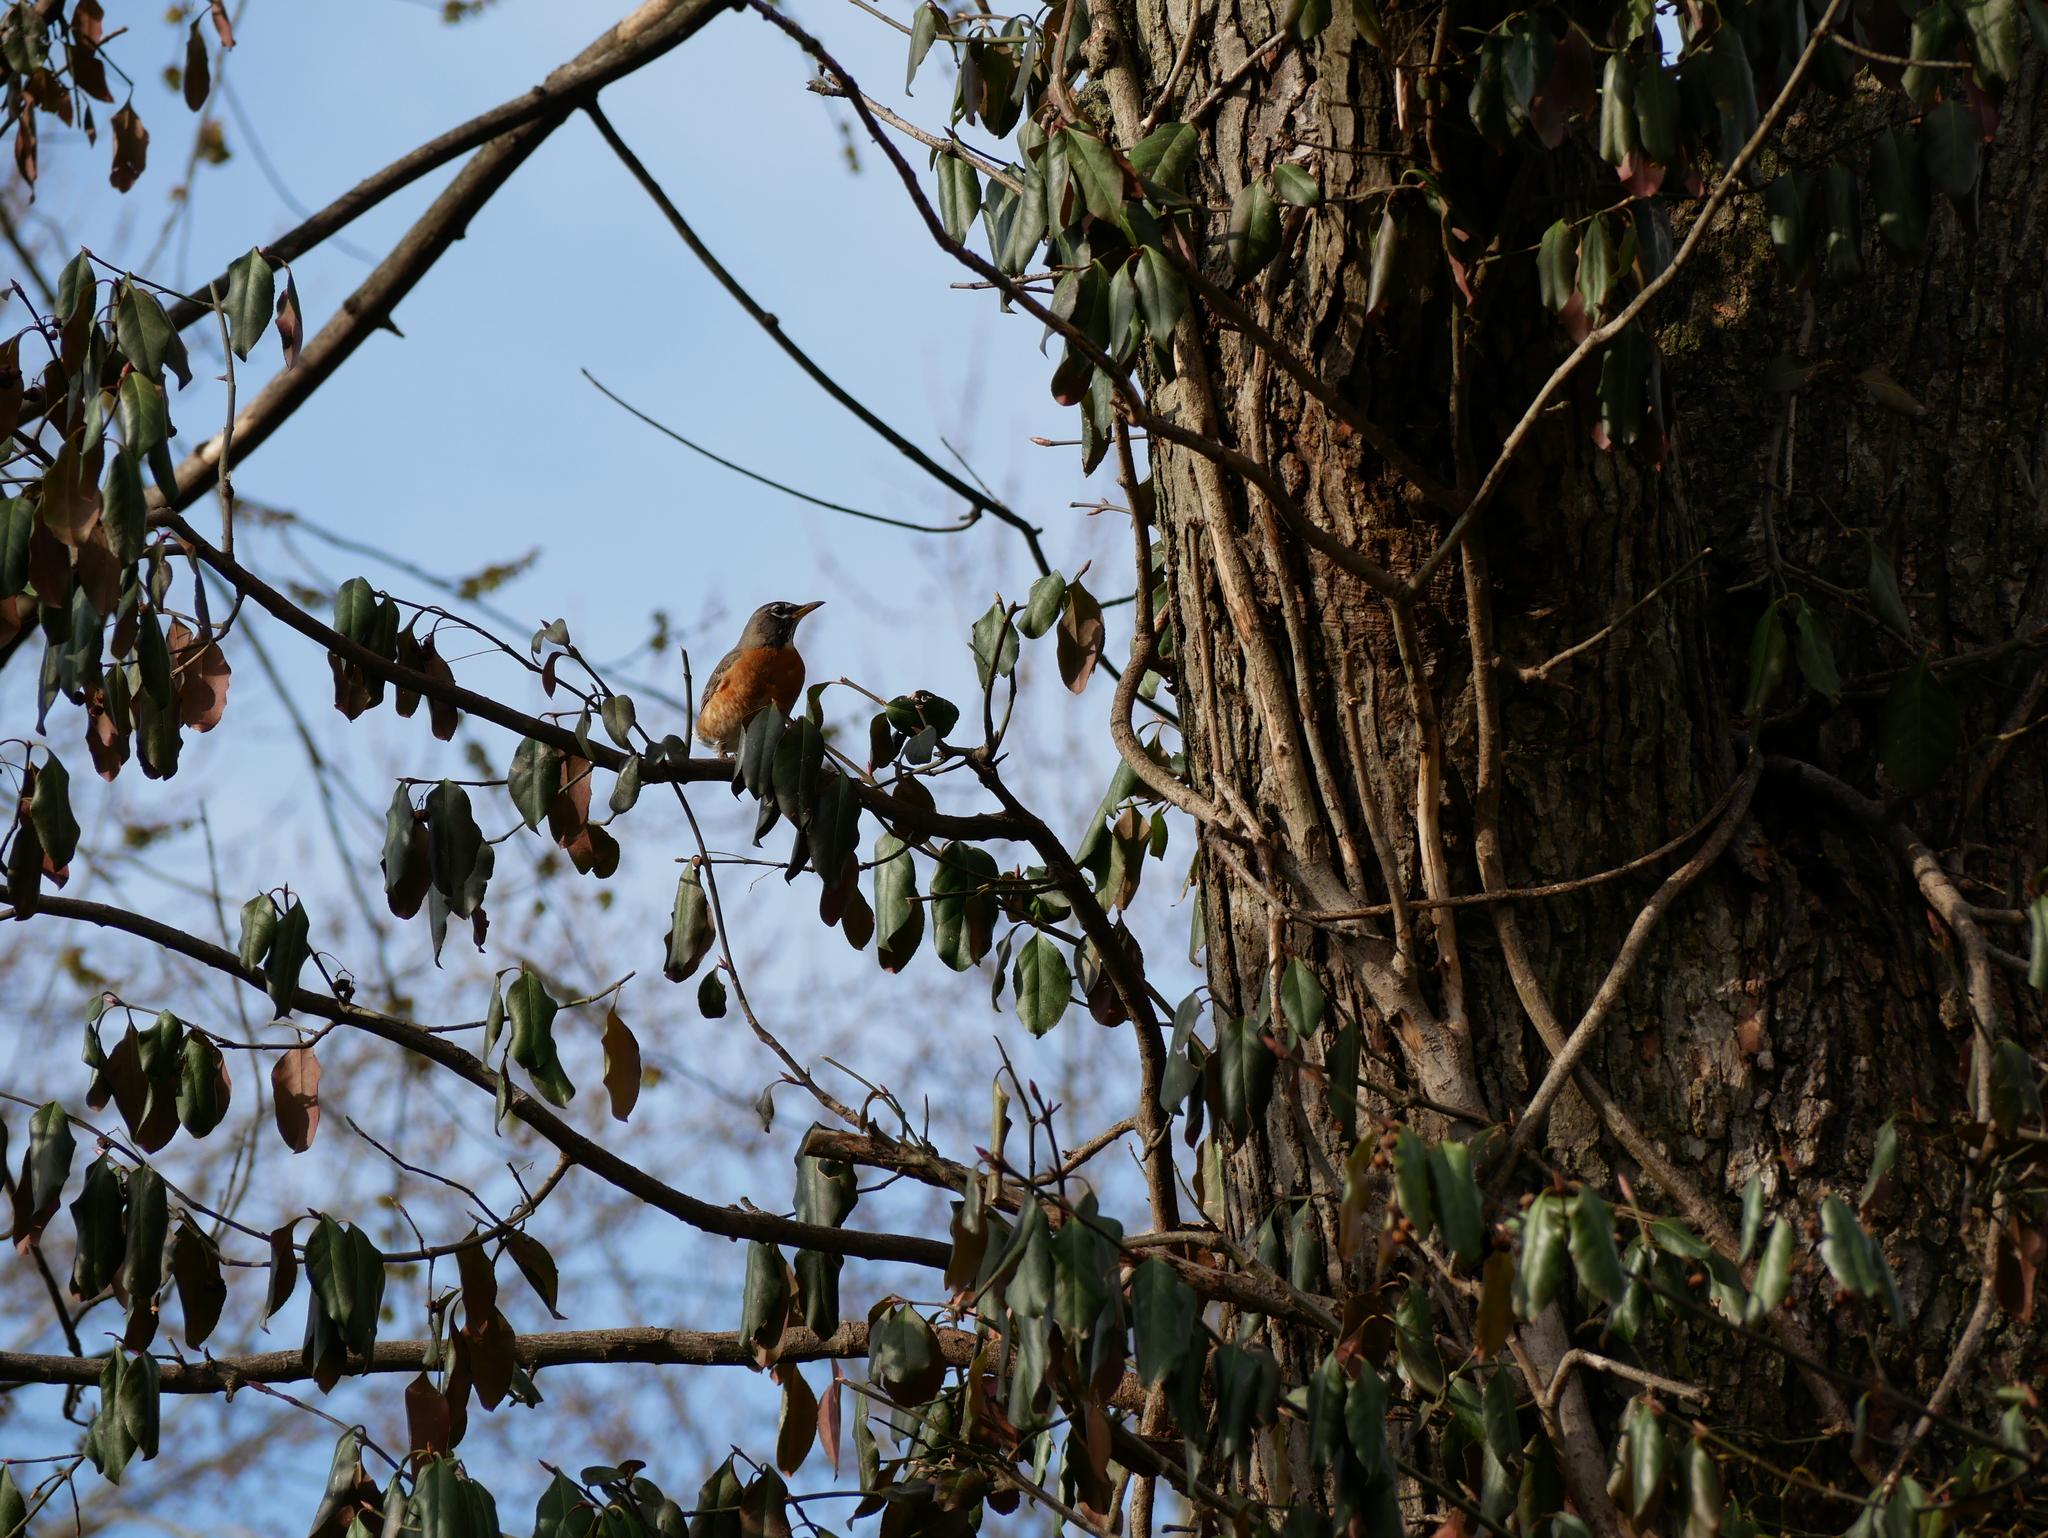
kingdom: Animalia
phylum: Chordata
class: Aves
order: Passeriformes
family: Turdidae
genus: Turdus
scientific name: Turdus migratorius
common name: American robin
